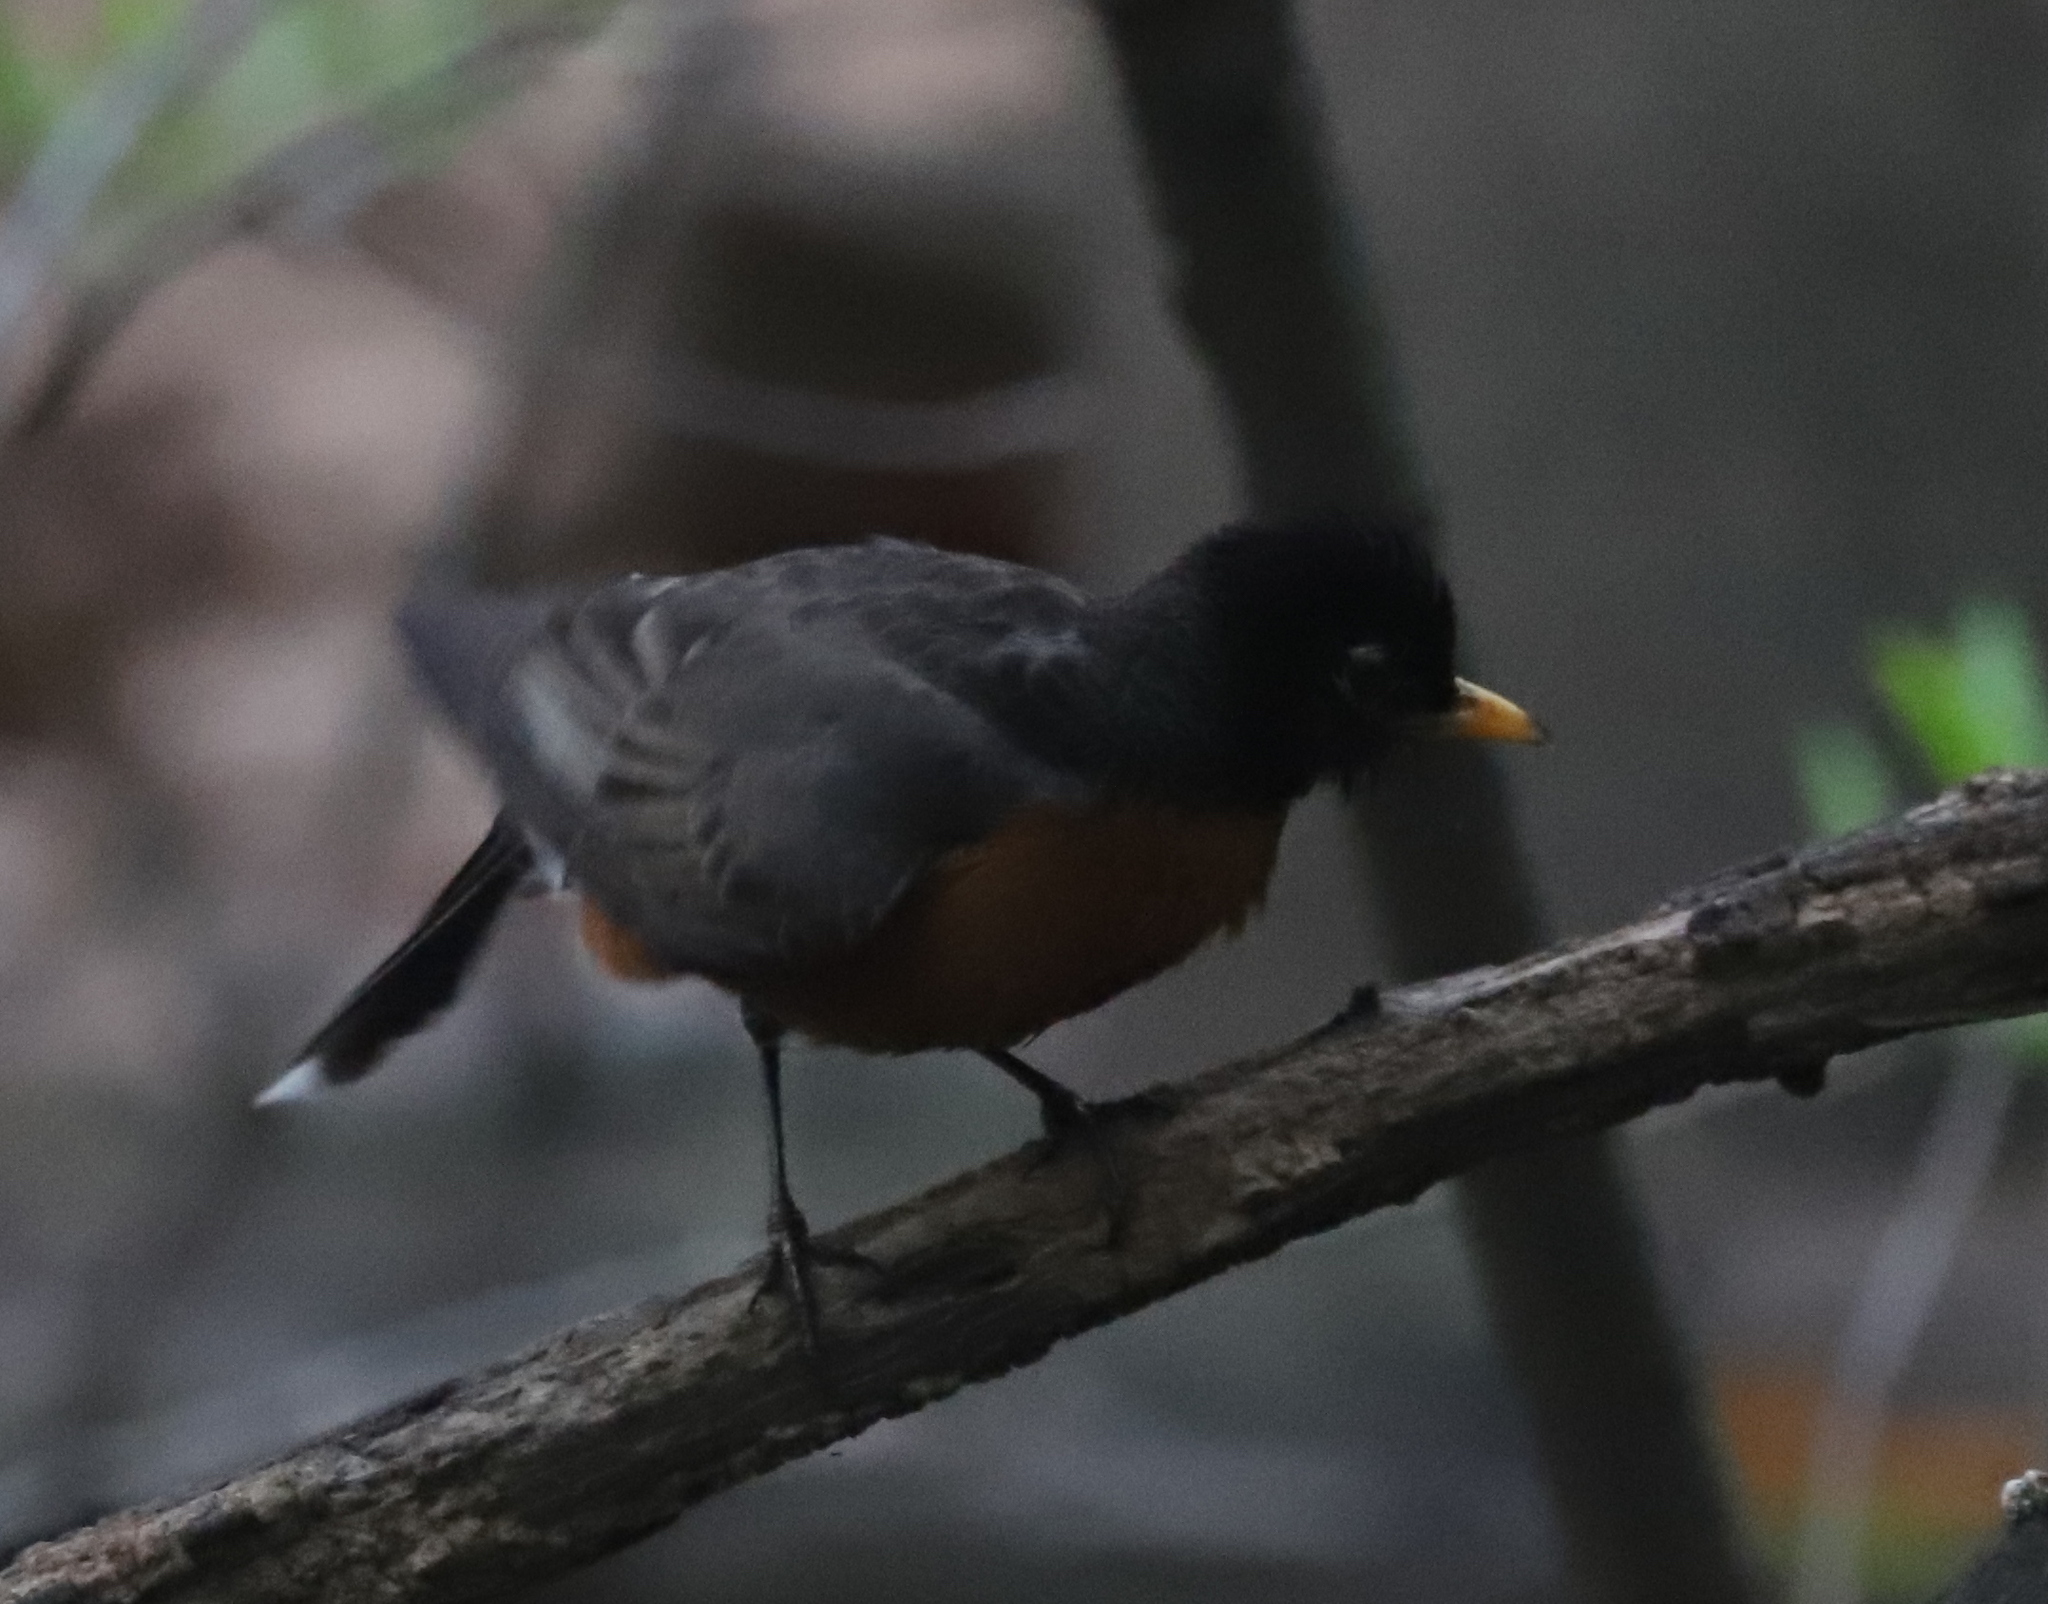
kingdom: Animalia
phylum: Chordata
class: Aves
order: Passeriformes
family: Turdidae
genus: Turdus
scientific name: Turdus migratorius
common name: American robin
